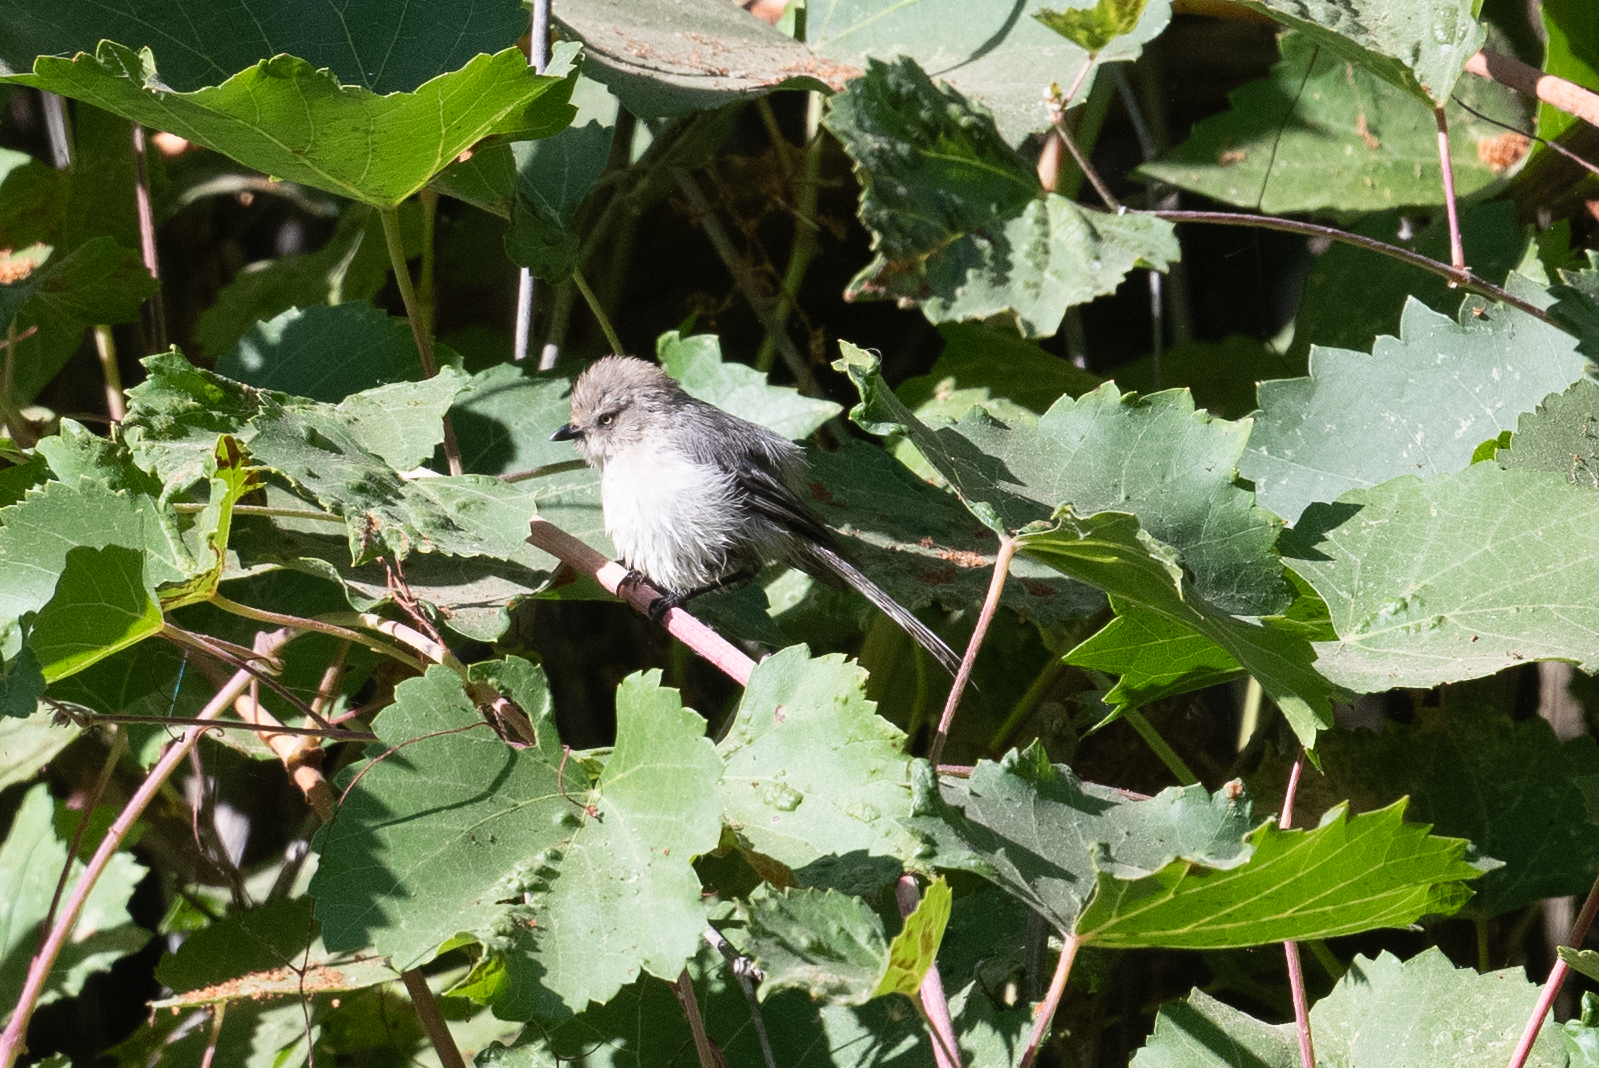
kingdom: Animalia
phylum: Chordata
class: Aves
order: Passeriformes
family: Aegithalidae
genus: Psaltriparus
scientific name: Psaltriparus minimus
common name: American bushtit
